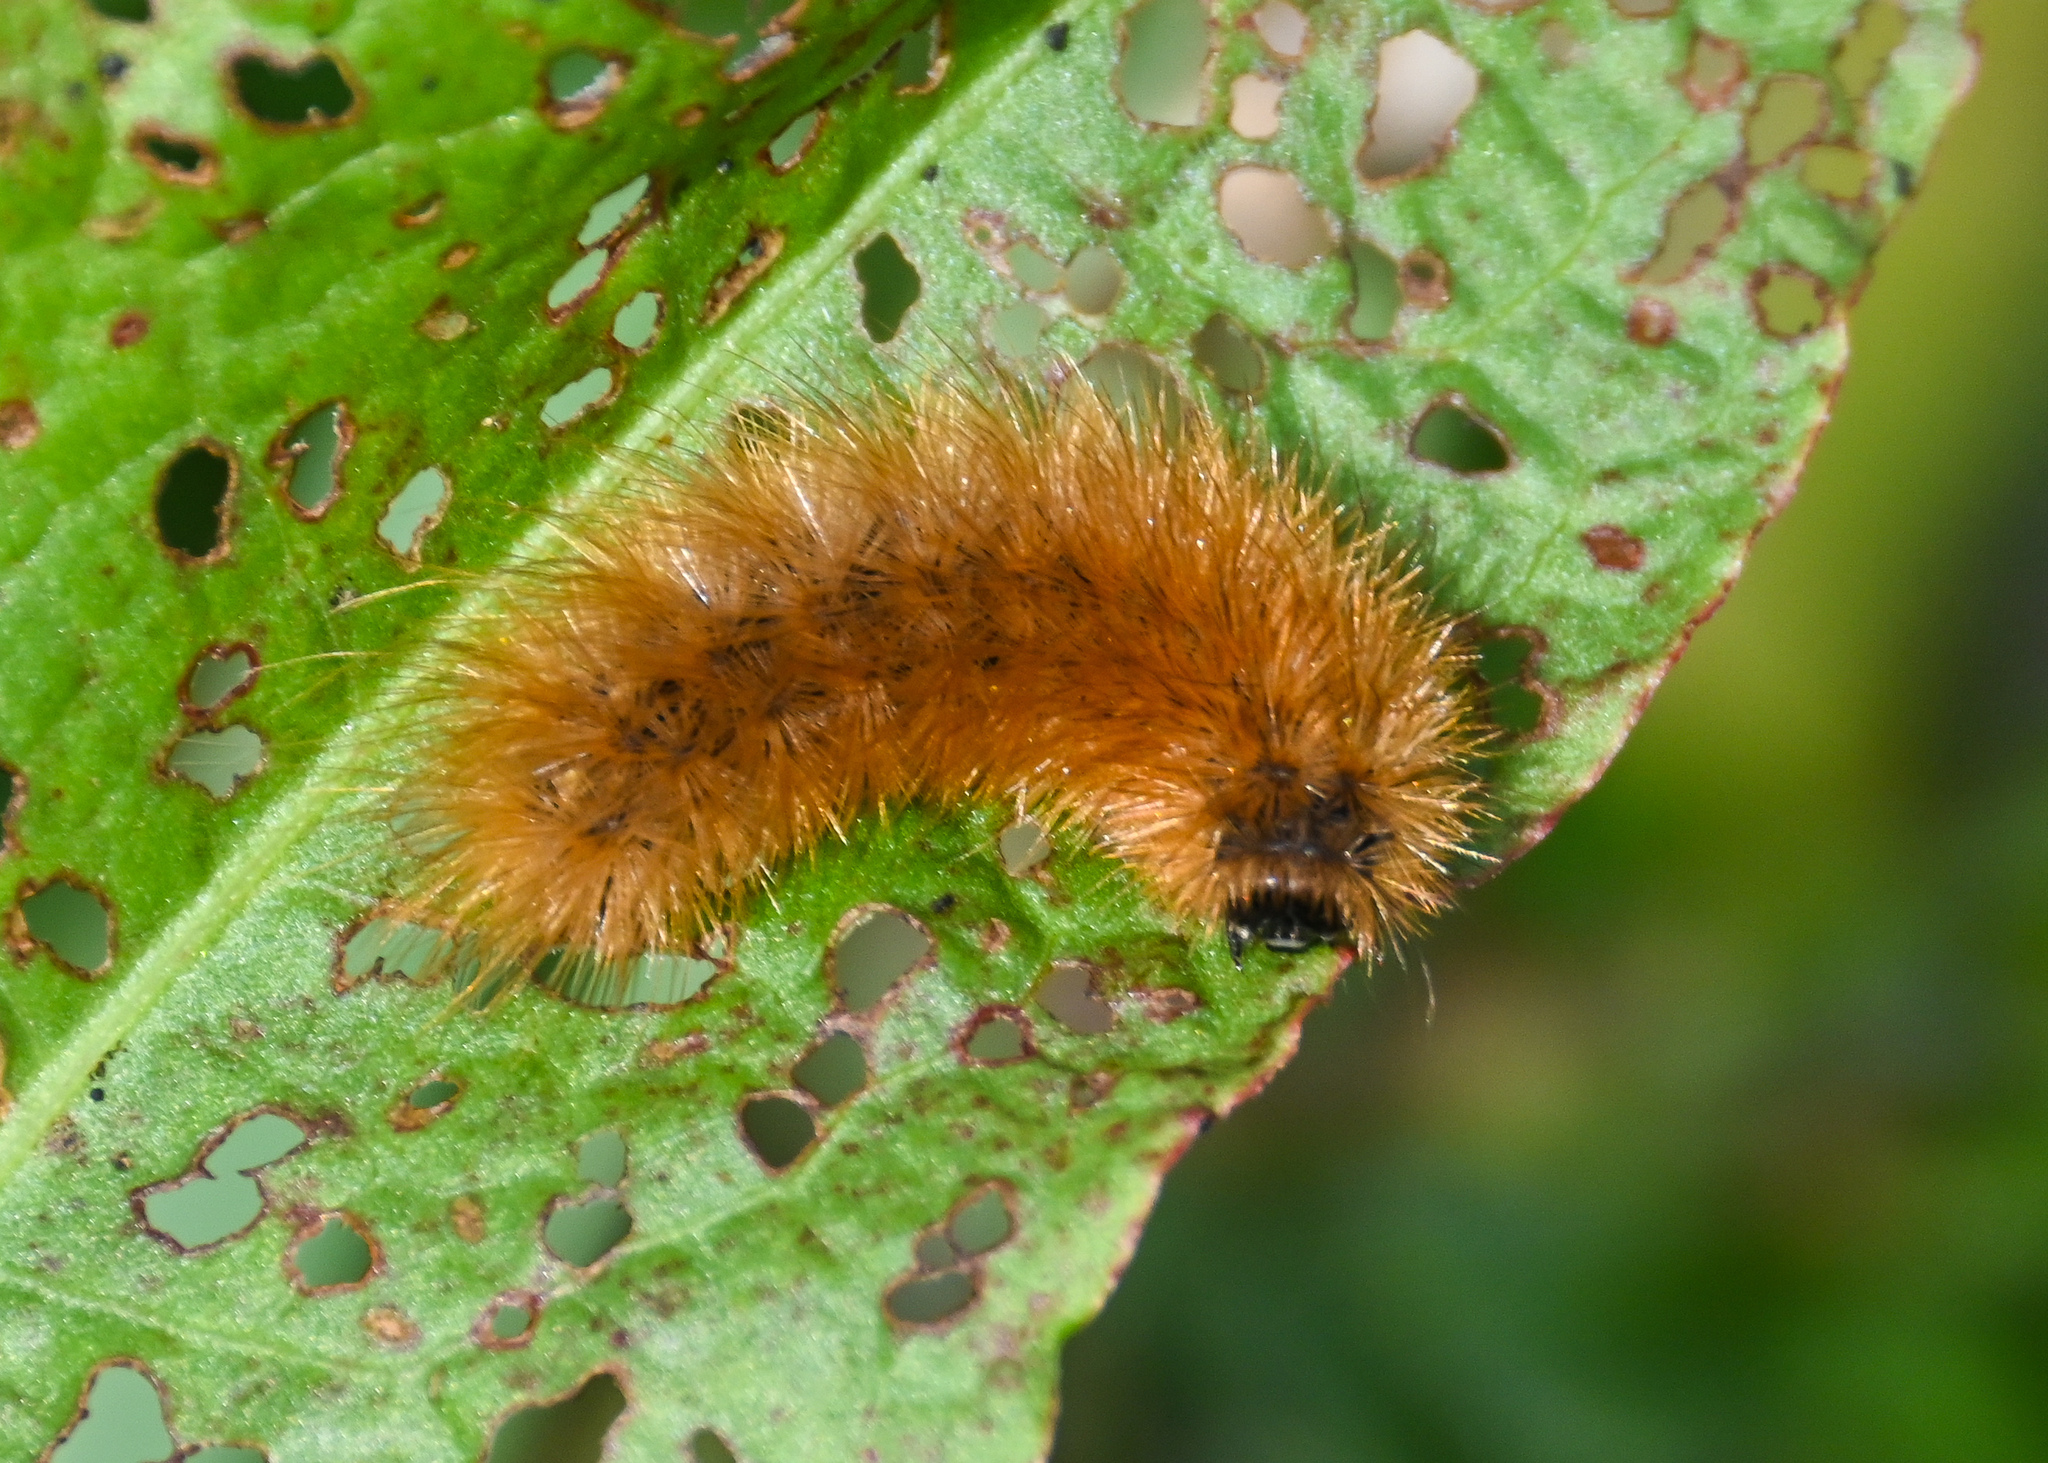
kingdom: Animalia
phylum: Arthropoda
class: Insecta
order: Lepidoptera
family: Erebidae
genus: Phragmatobia
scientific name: Phragmatobia fuliginosa
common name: Ruby tiger
